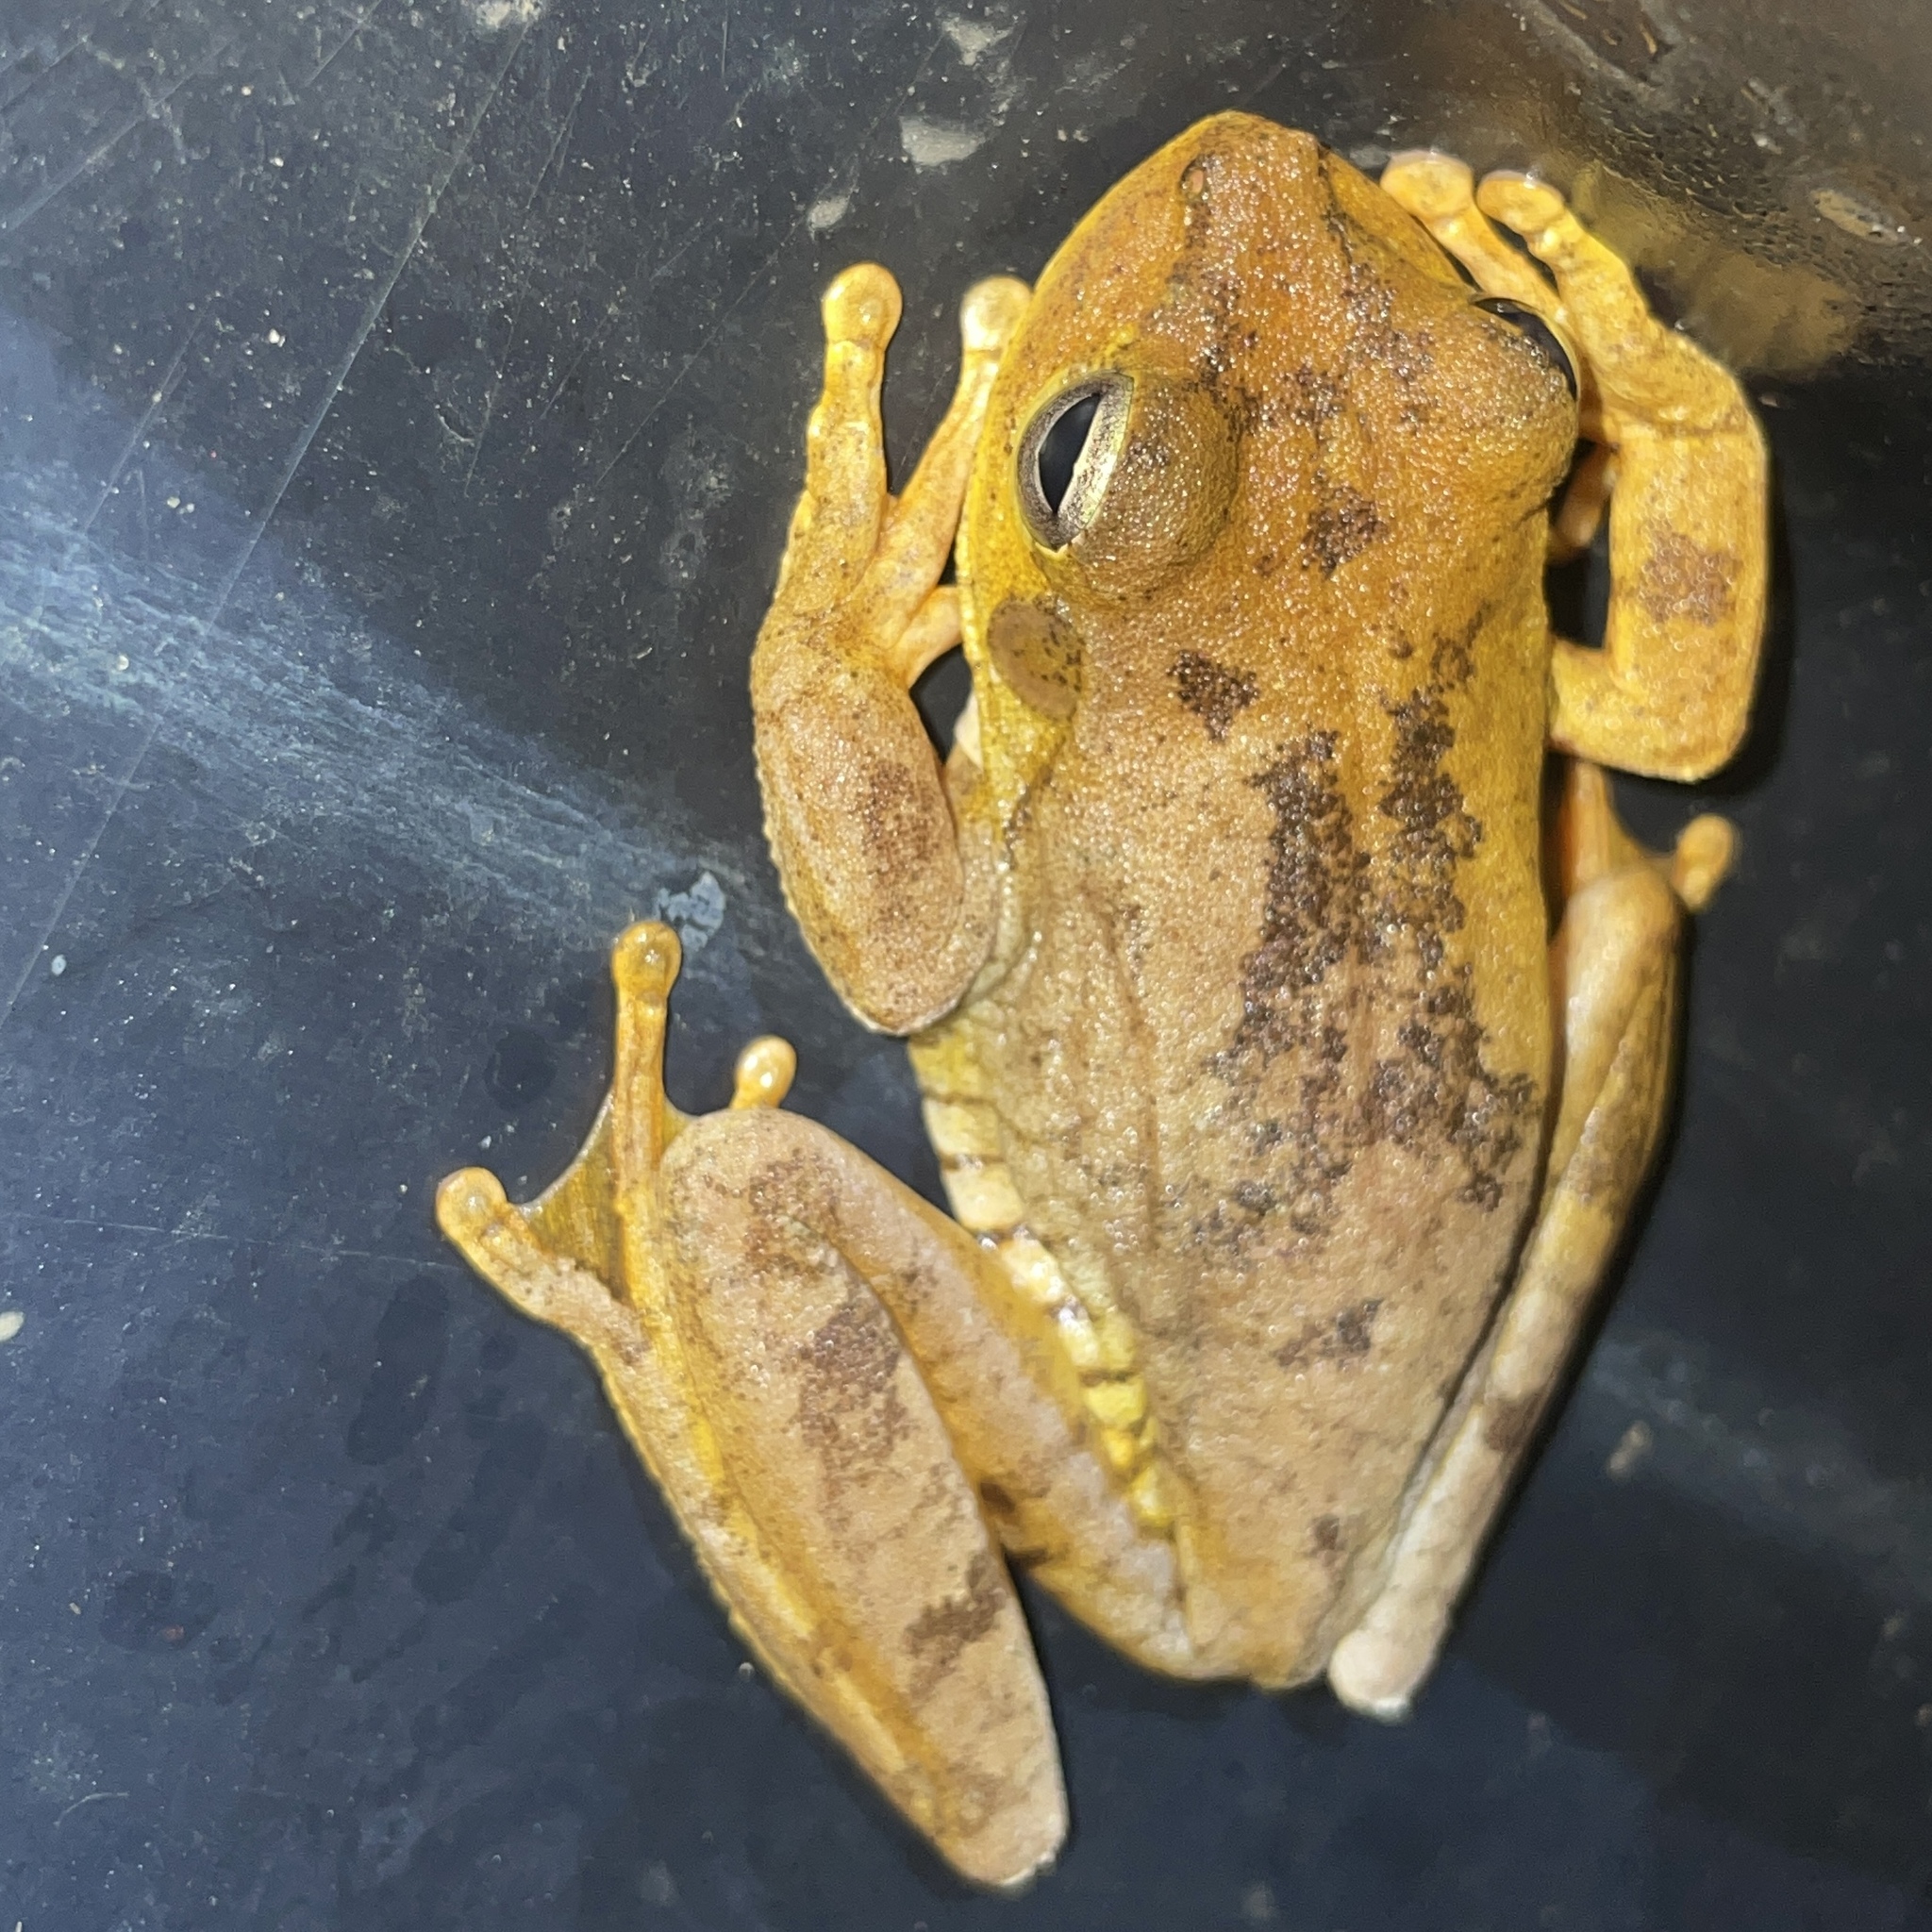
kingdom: Animalia
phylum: Chordata
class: Amphibia
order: Anura
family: Hylidae
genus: Boana
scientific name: Boana platanera
